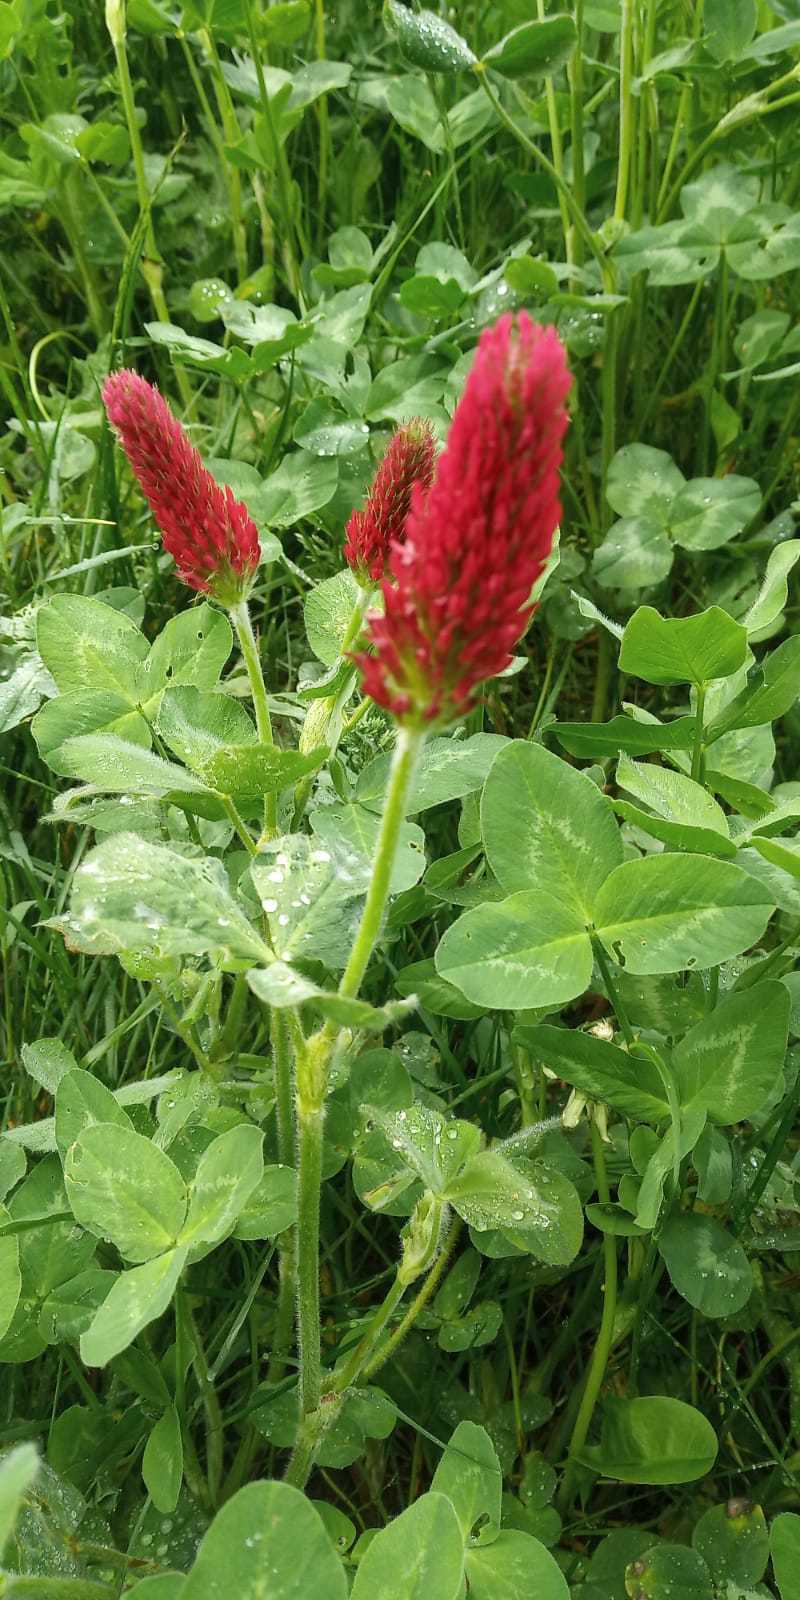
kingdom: Plantae
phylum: Tracheophyta
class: Magnoliopsida
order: Fabales
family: Fabaceae
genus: Trifolium
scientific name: Trifolium incarnatum
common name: Crimson clover
